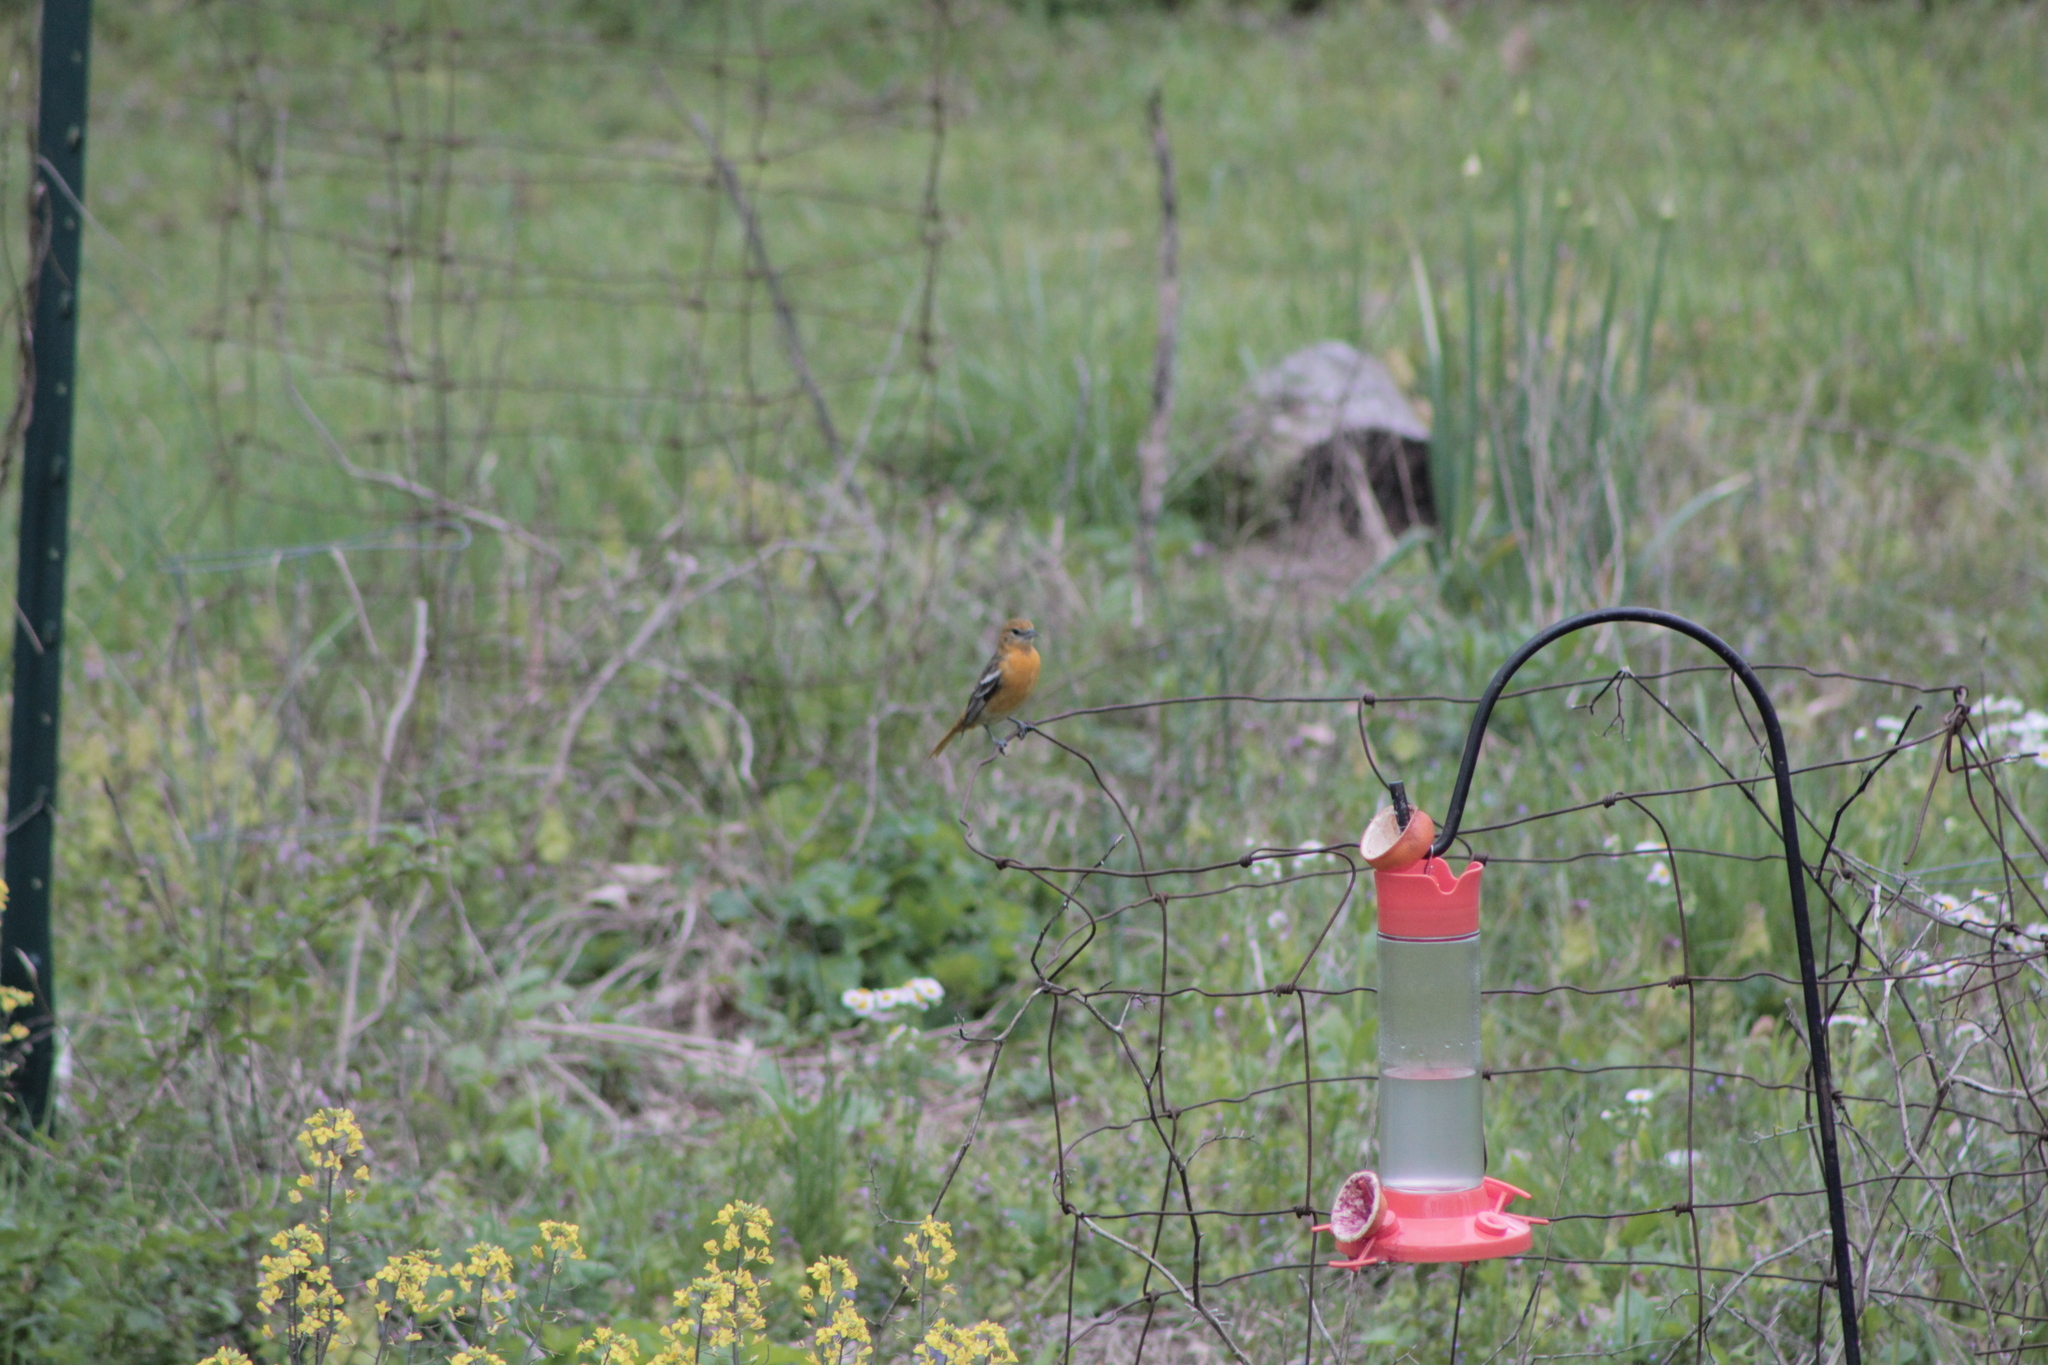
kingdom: Animalia
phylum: Chordata
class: Aves
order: Passeriformes
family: Icteridae
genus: Icterus
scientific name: Icterus galbula
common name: Baltimore oriole
